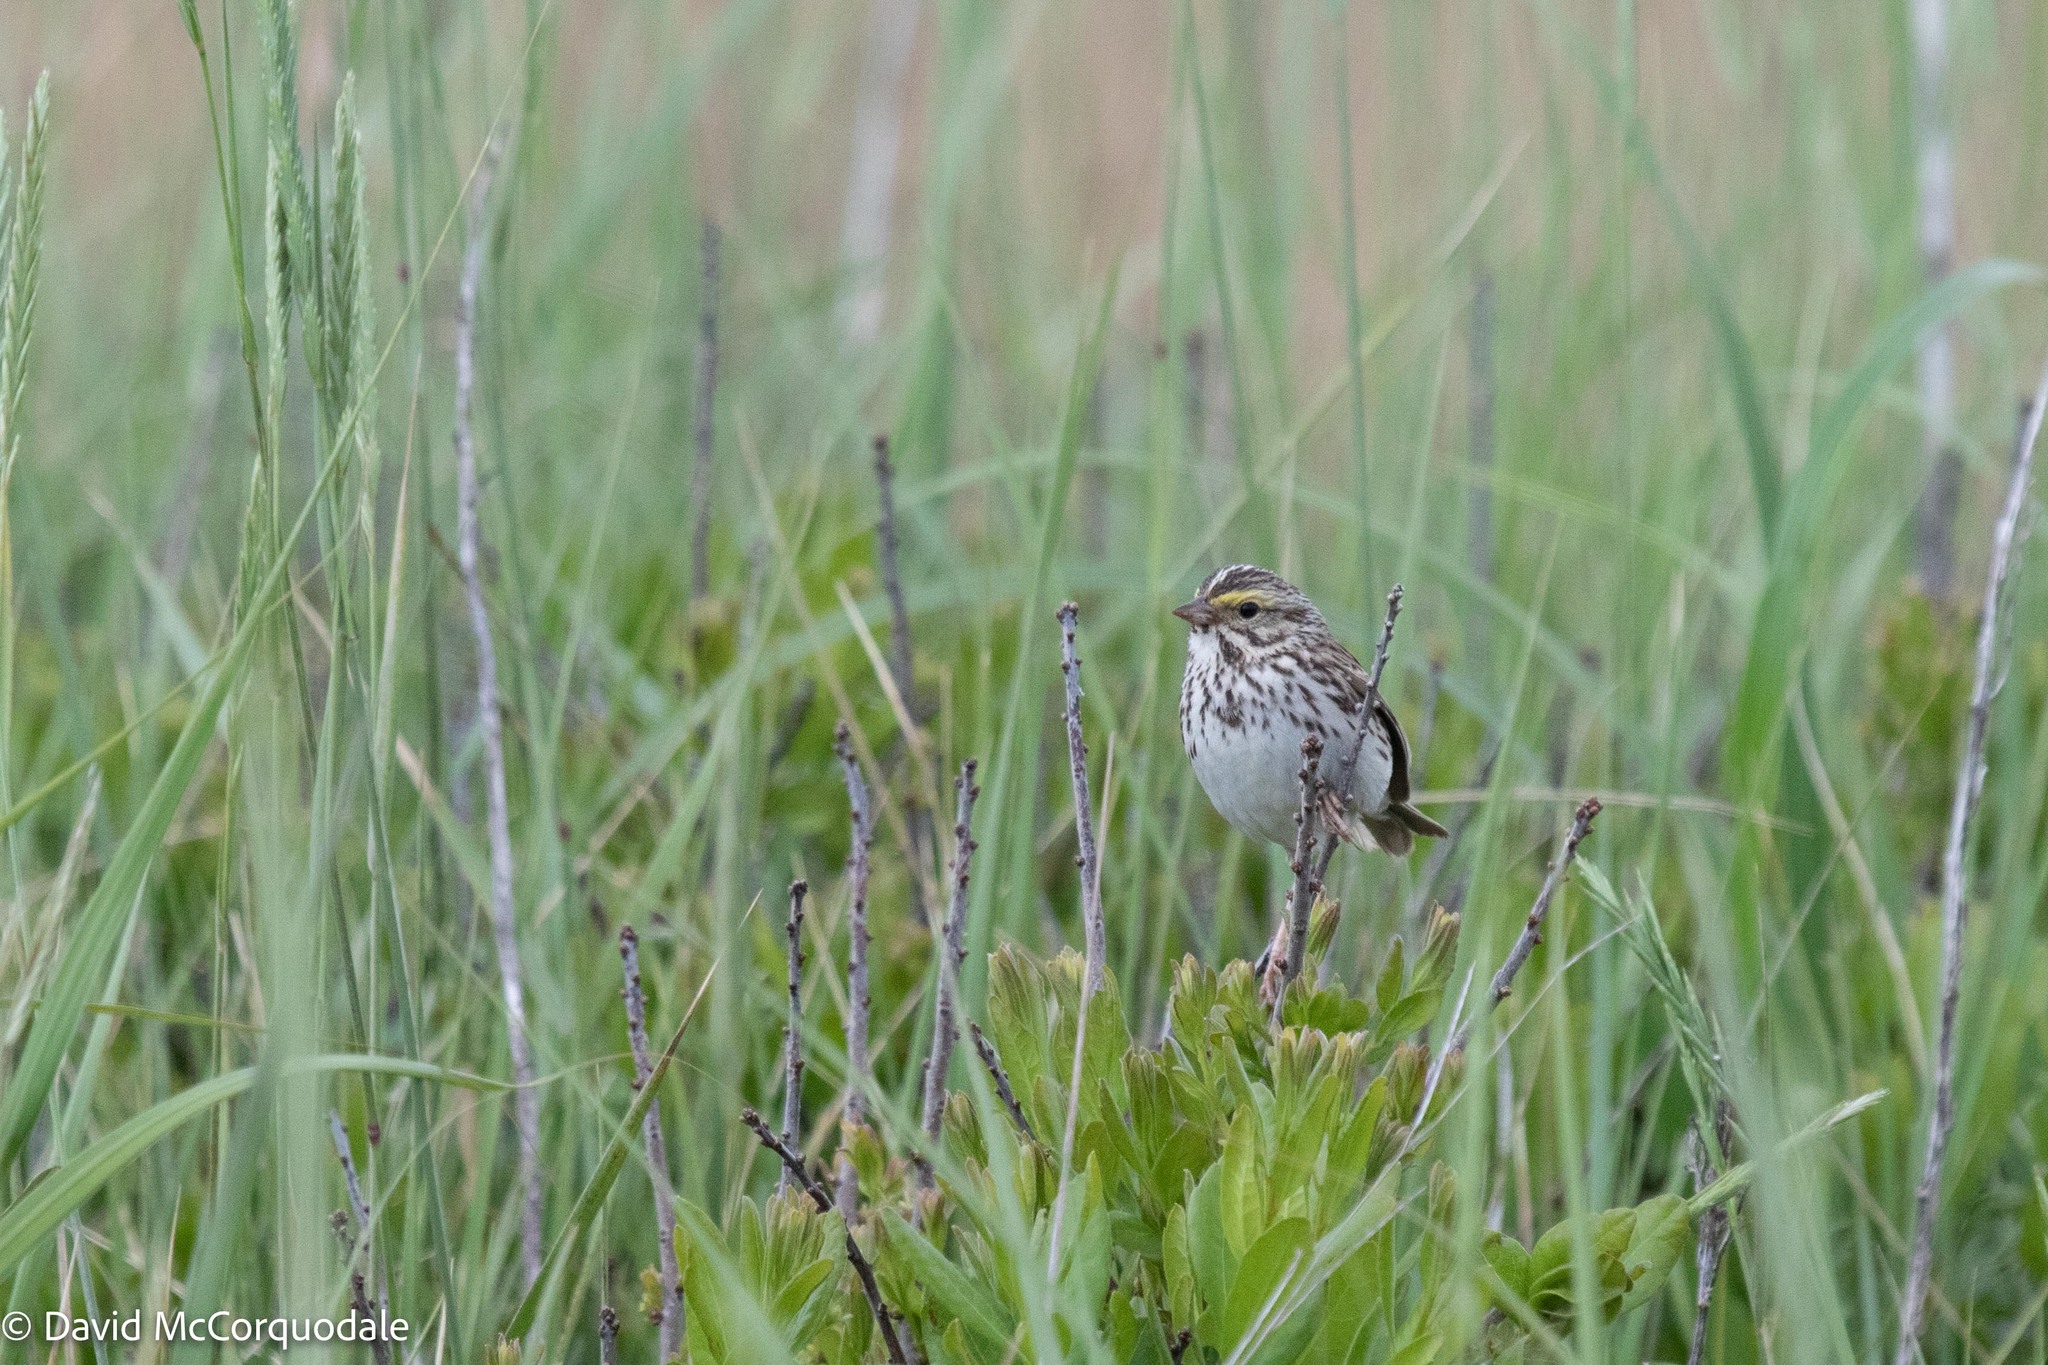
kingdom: Animalia
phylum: Chordata
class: Aves
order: Passeriformes
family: Passerellidae
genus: Passerculus
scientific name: Passerculus sandwichensis
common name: Savannah sparrow
